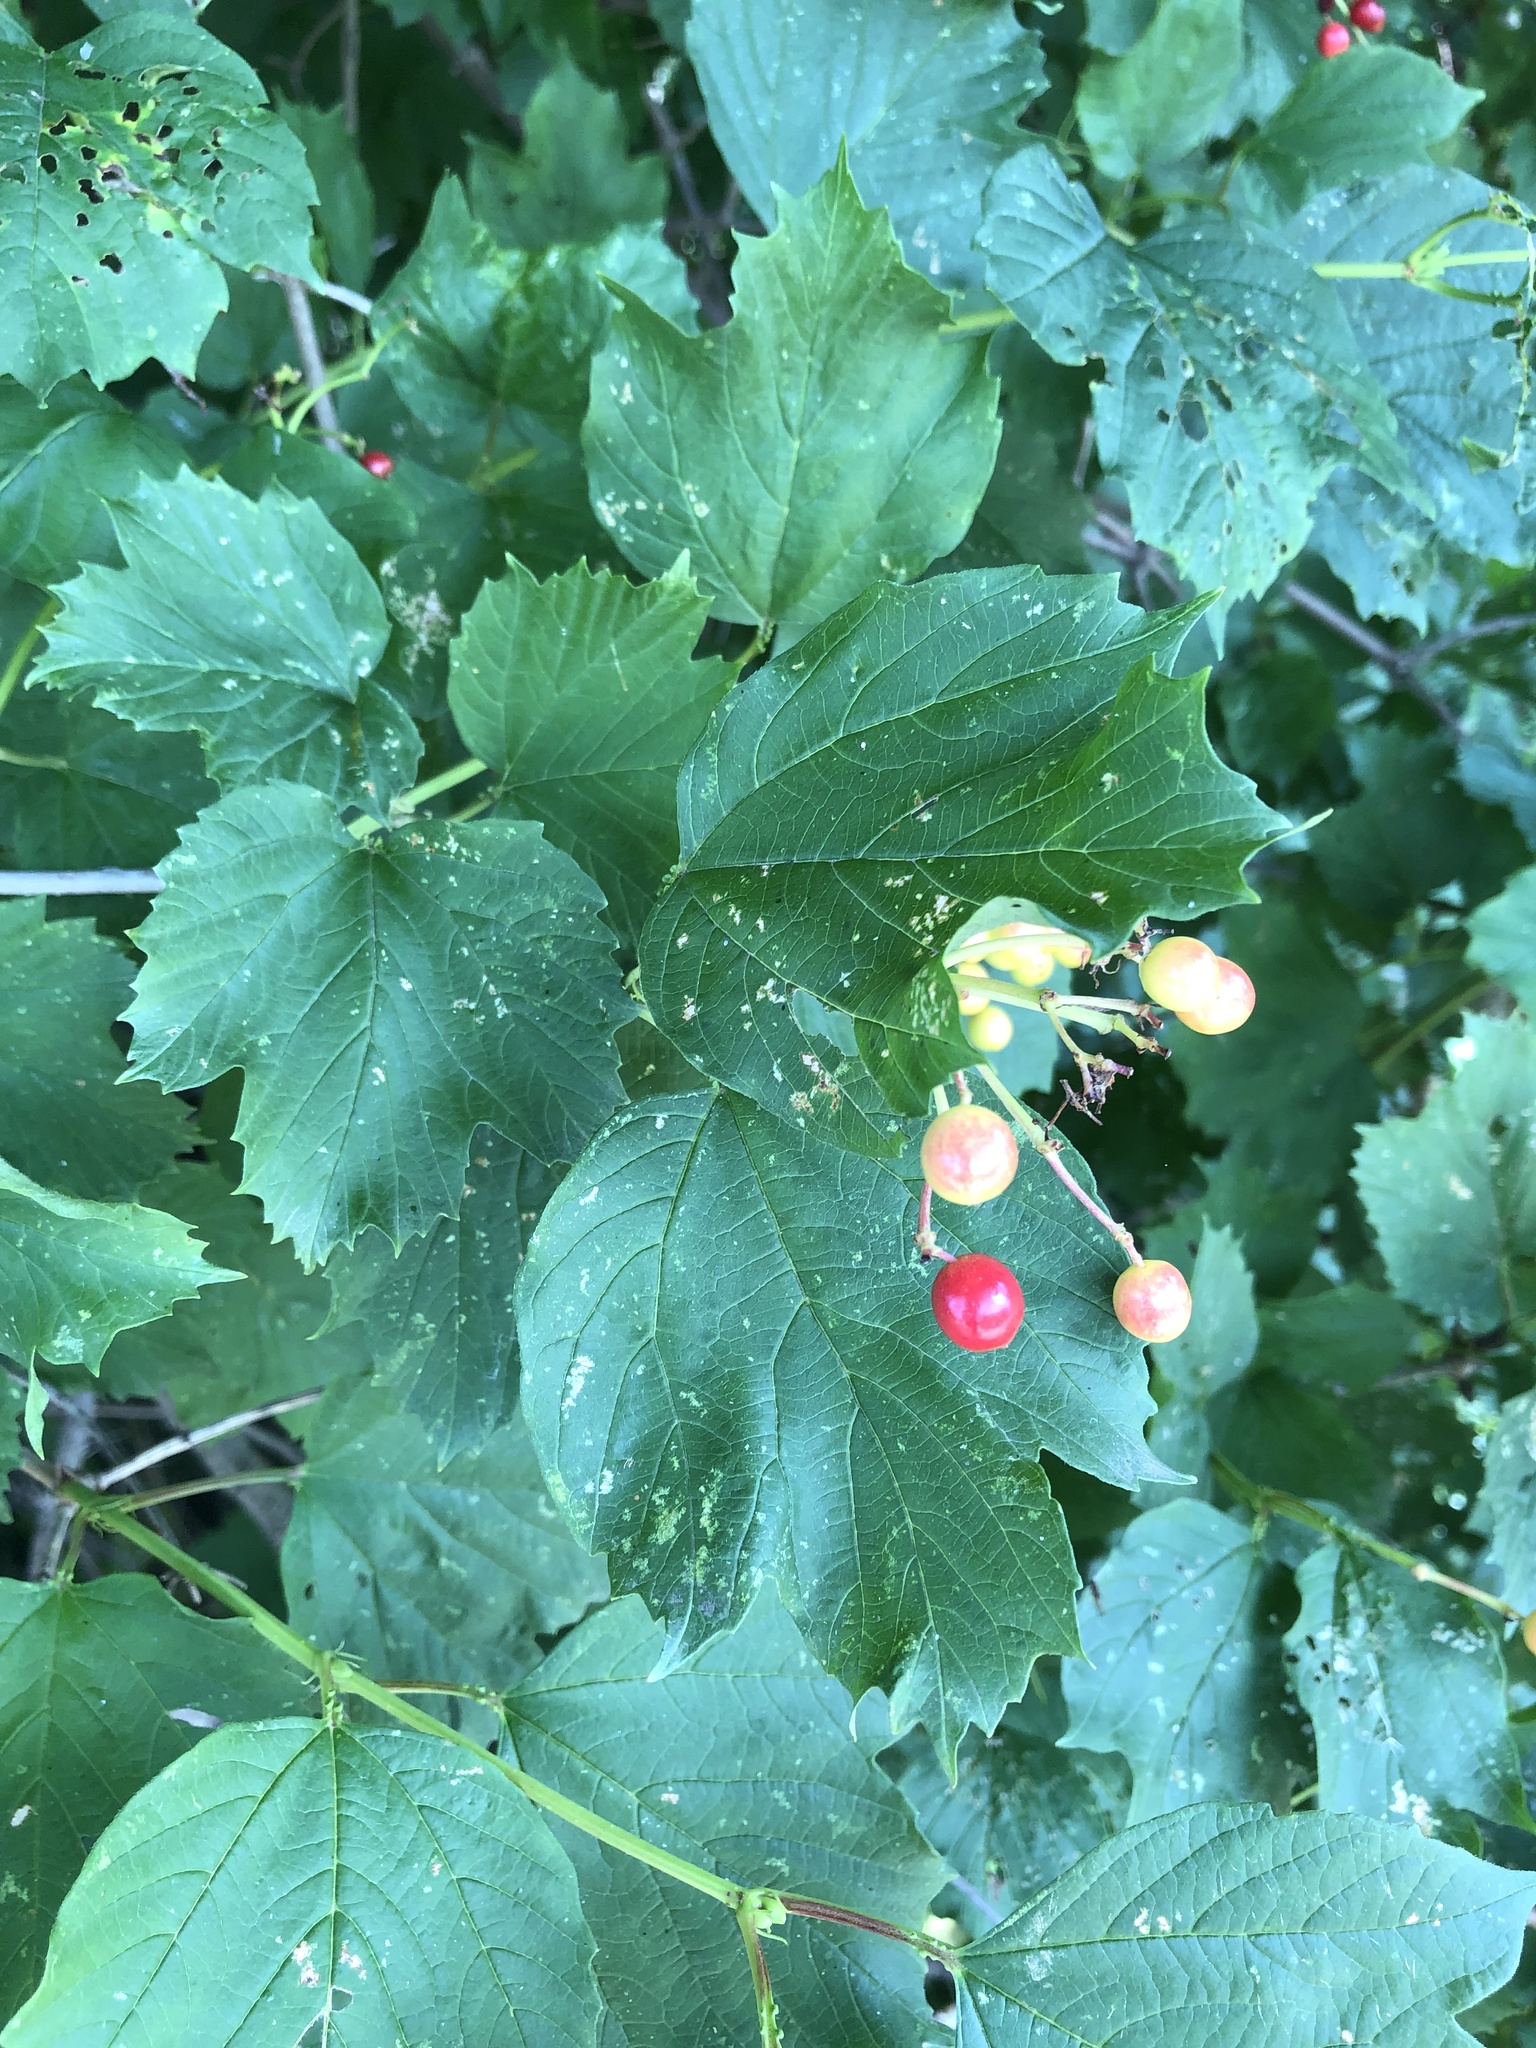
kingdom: Plantae
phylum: Tracheophyta
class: Magnoliopsida
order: Dipsacales
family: Viburnaceae
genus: Viburnum
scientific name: Viburnum opulus
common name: Guelder-rose
